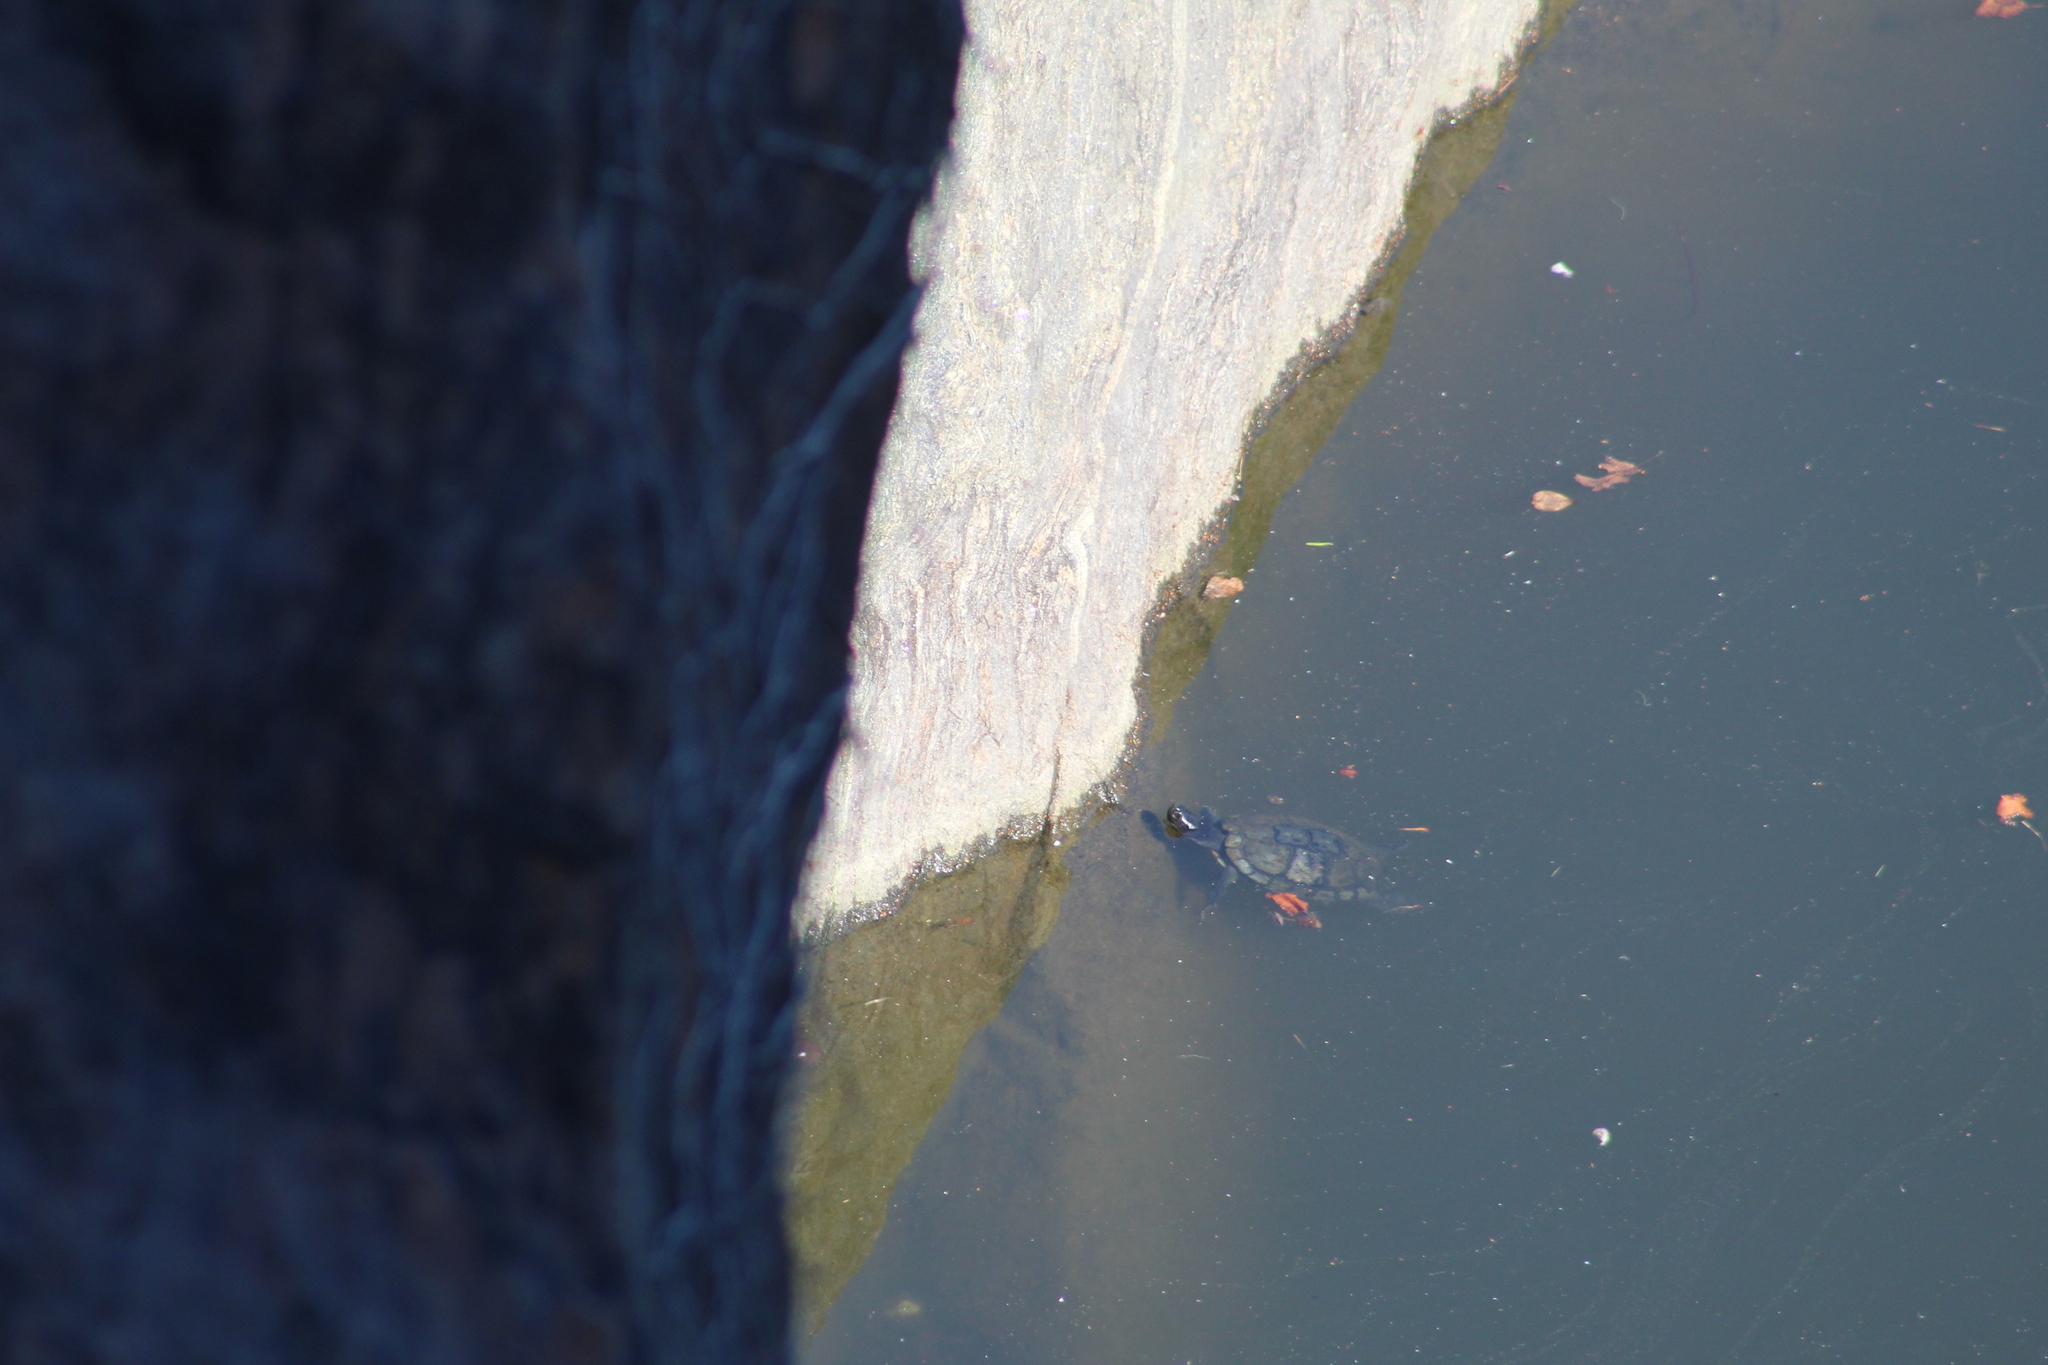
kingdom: Animalia
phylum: Chordata
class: Testudines
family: Emydidae
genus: Trachemys
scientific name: Trachemys scripta
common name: Slider
